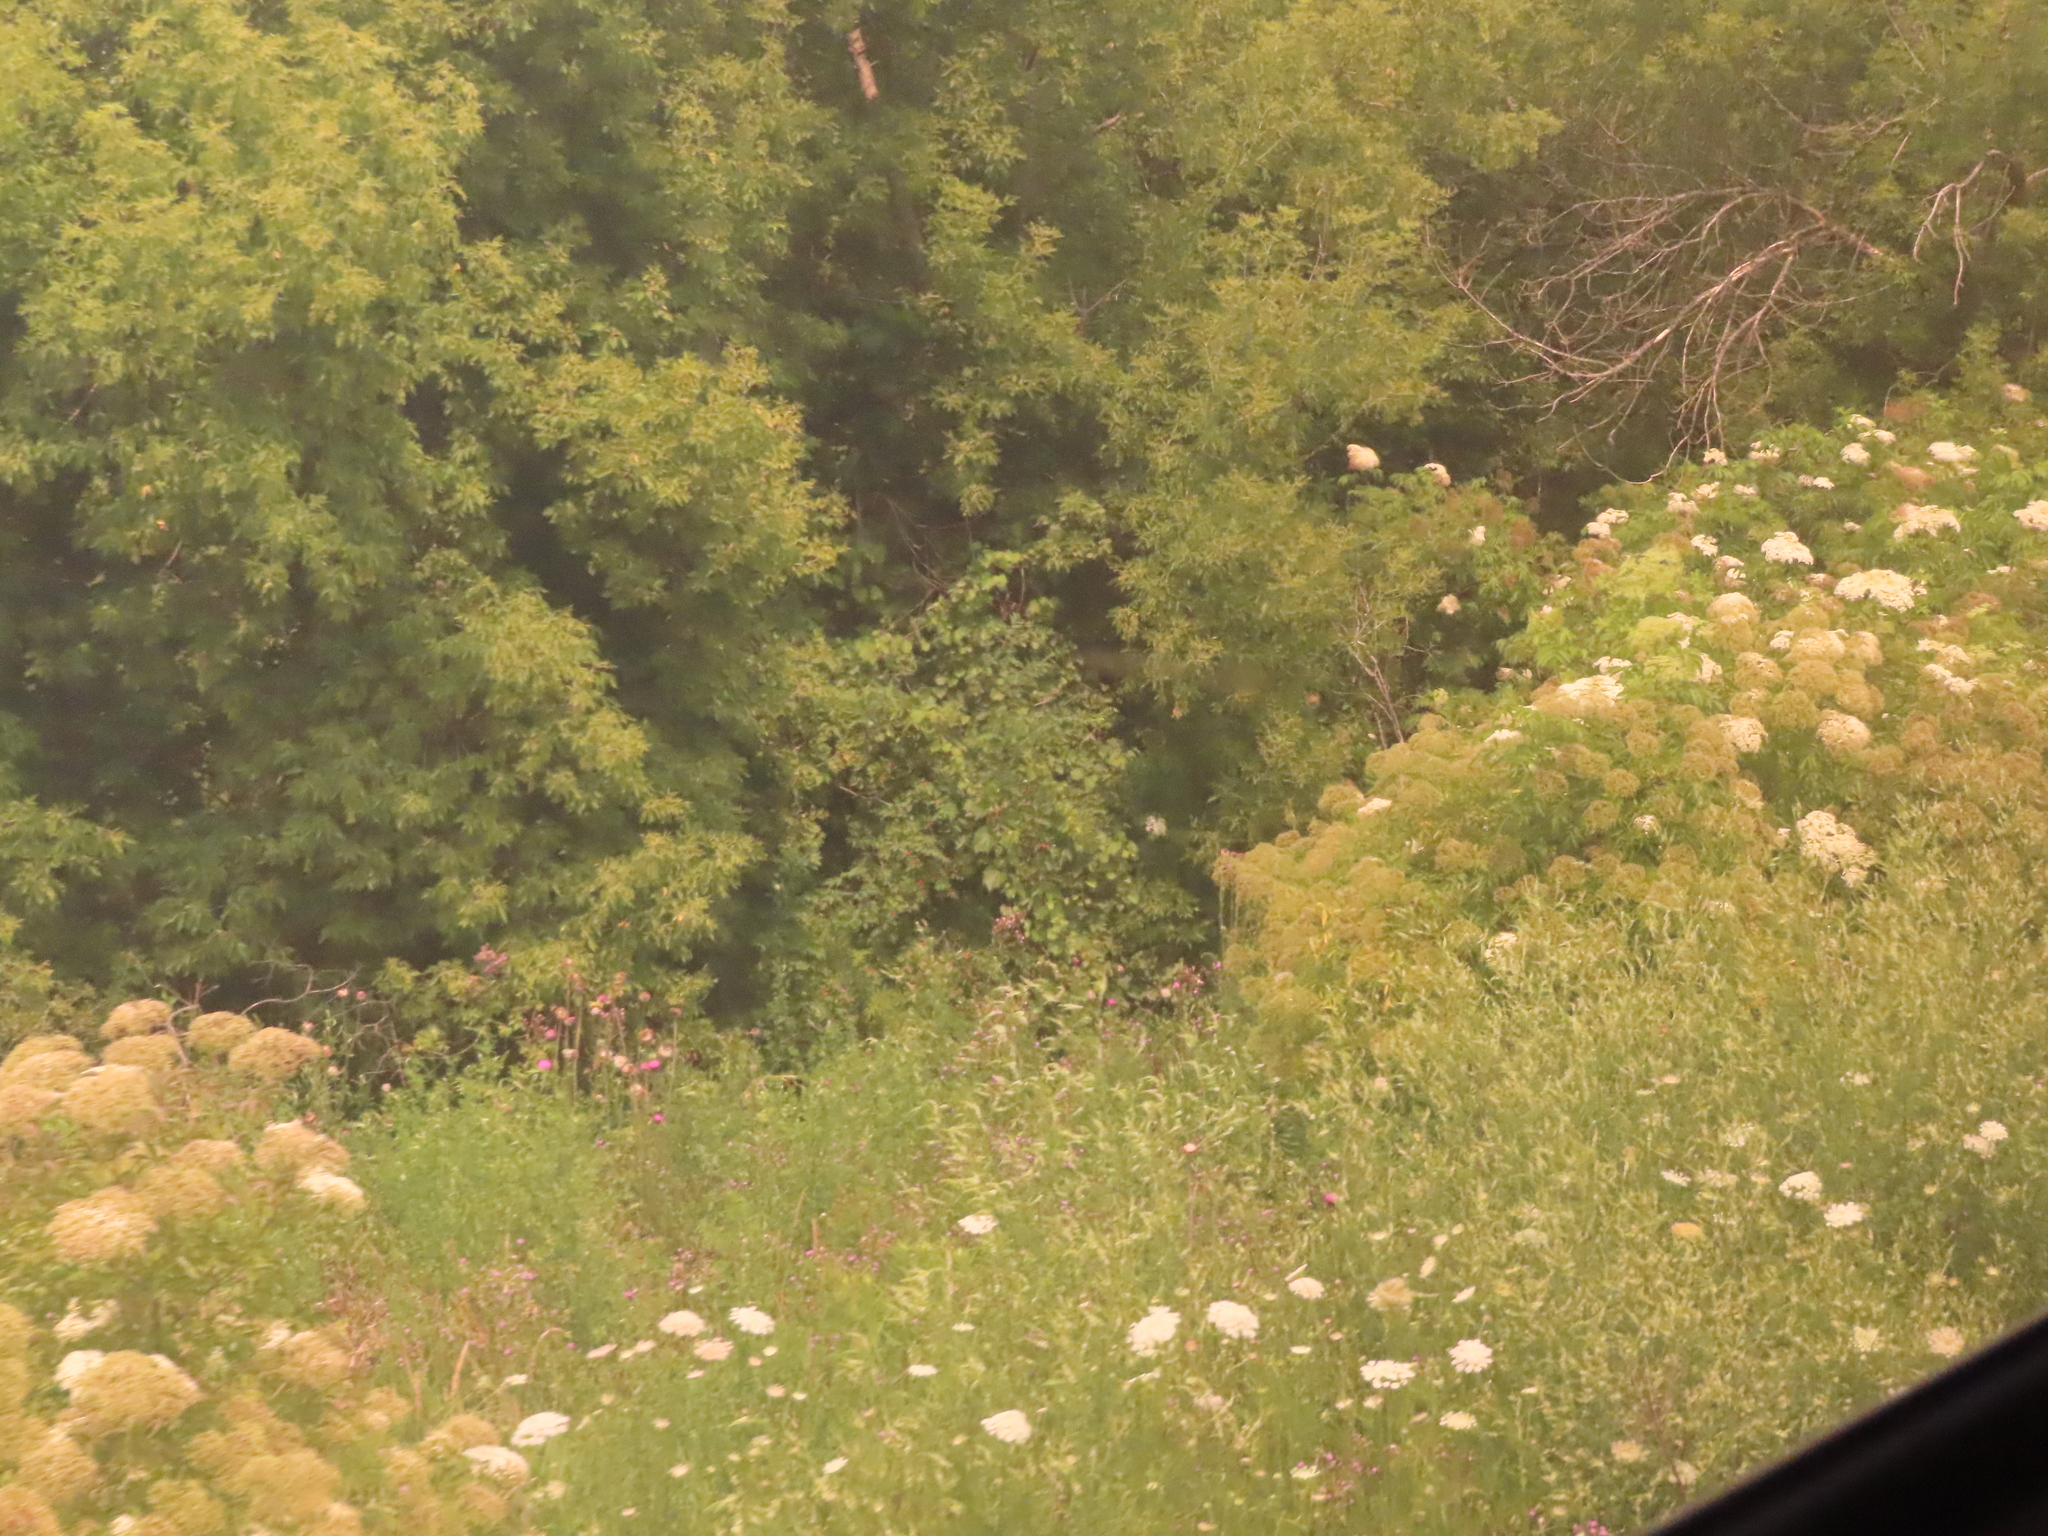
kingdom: Plantae
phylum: Tracheophyta
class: Magnoliopsida
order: Sapindales
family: Sapindaceae
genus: Acer
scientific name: Acer negundo
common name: Ashleaf maple
